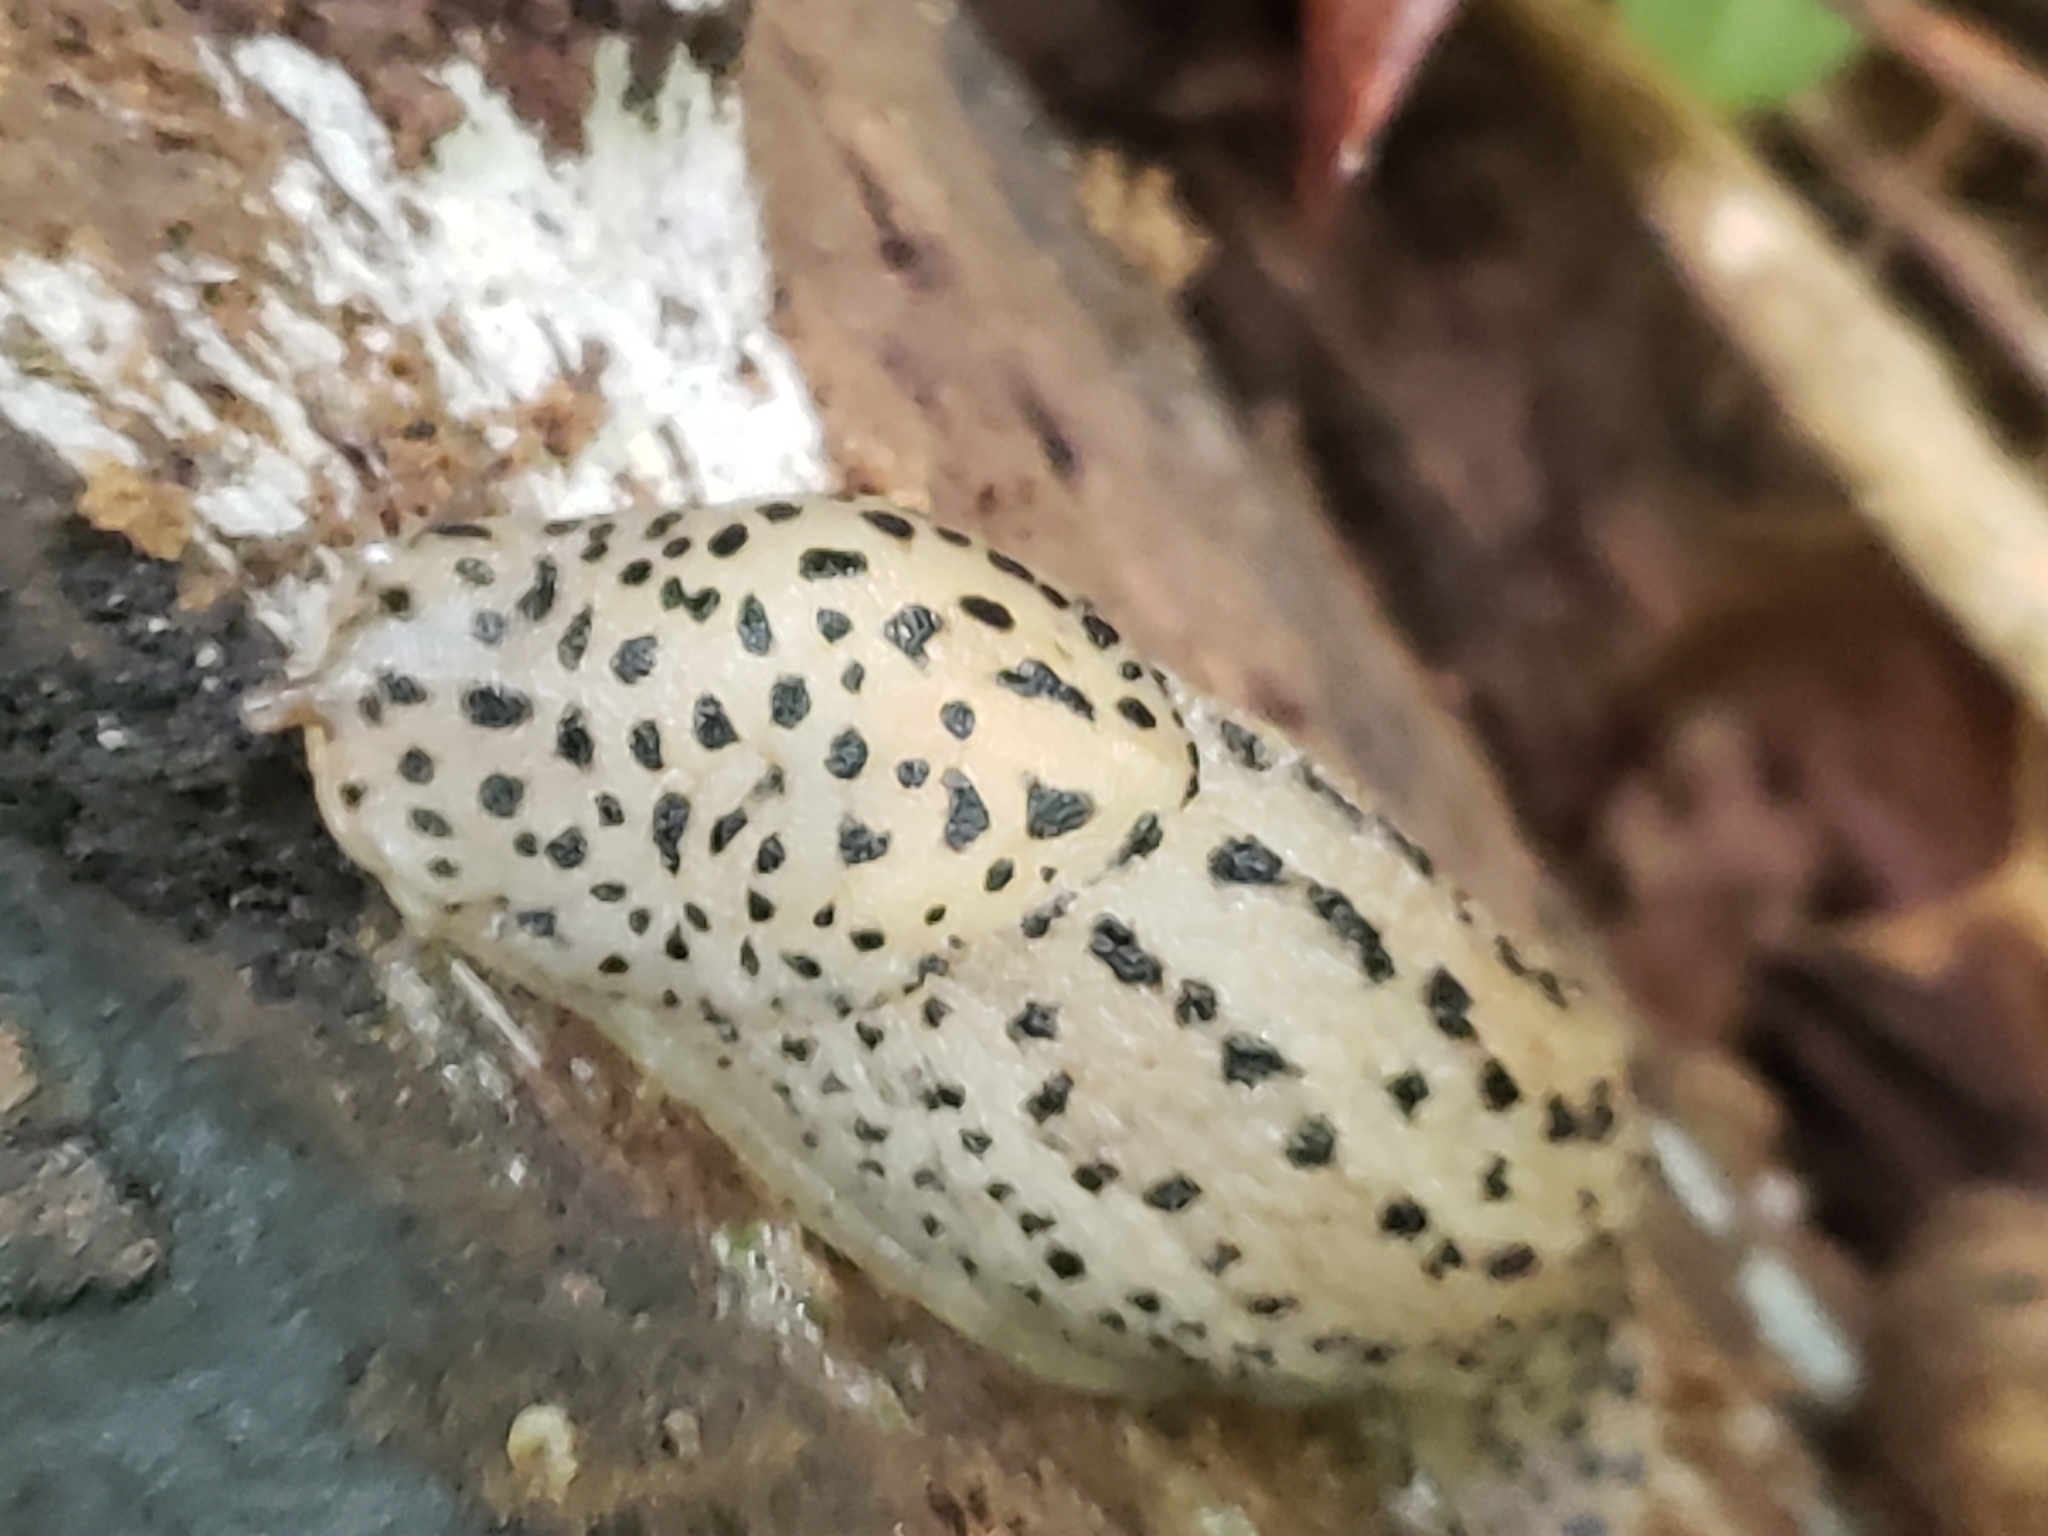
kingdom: Animalia
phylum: Mollusca
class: Gastropoda
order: Stylommatophora
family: Limacidae
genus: Limax
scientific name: Limax maximus
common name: Great grey slug
